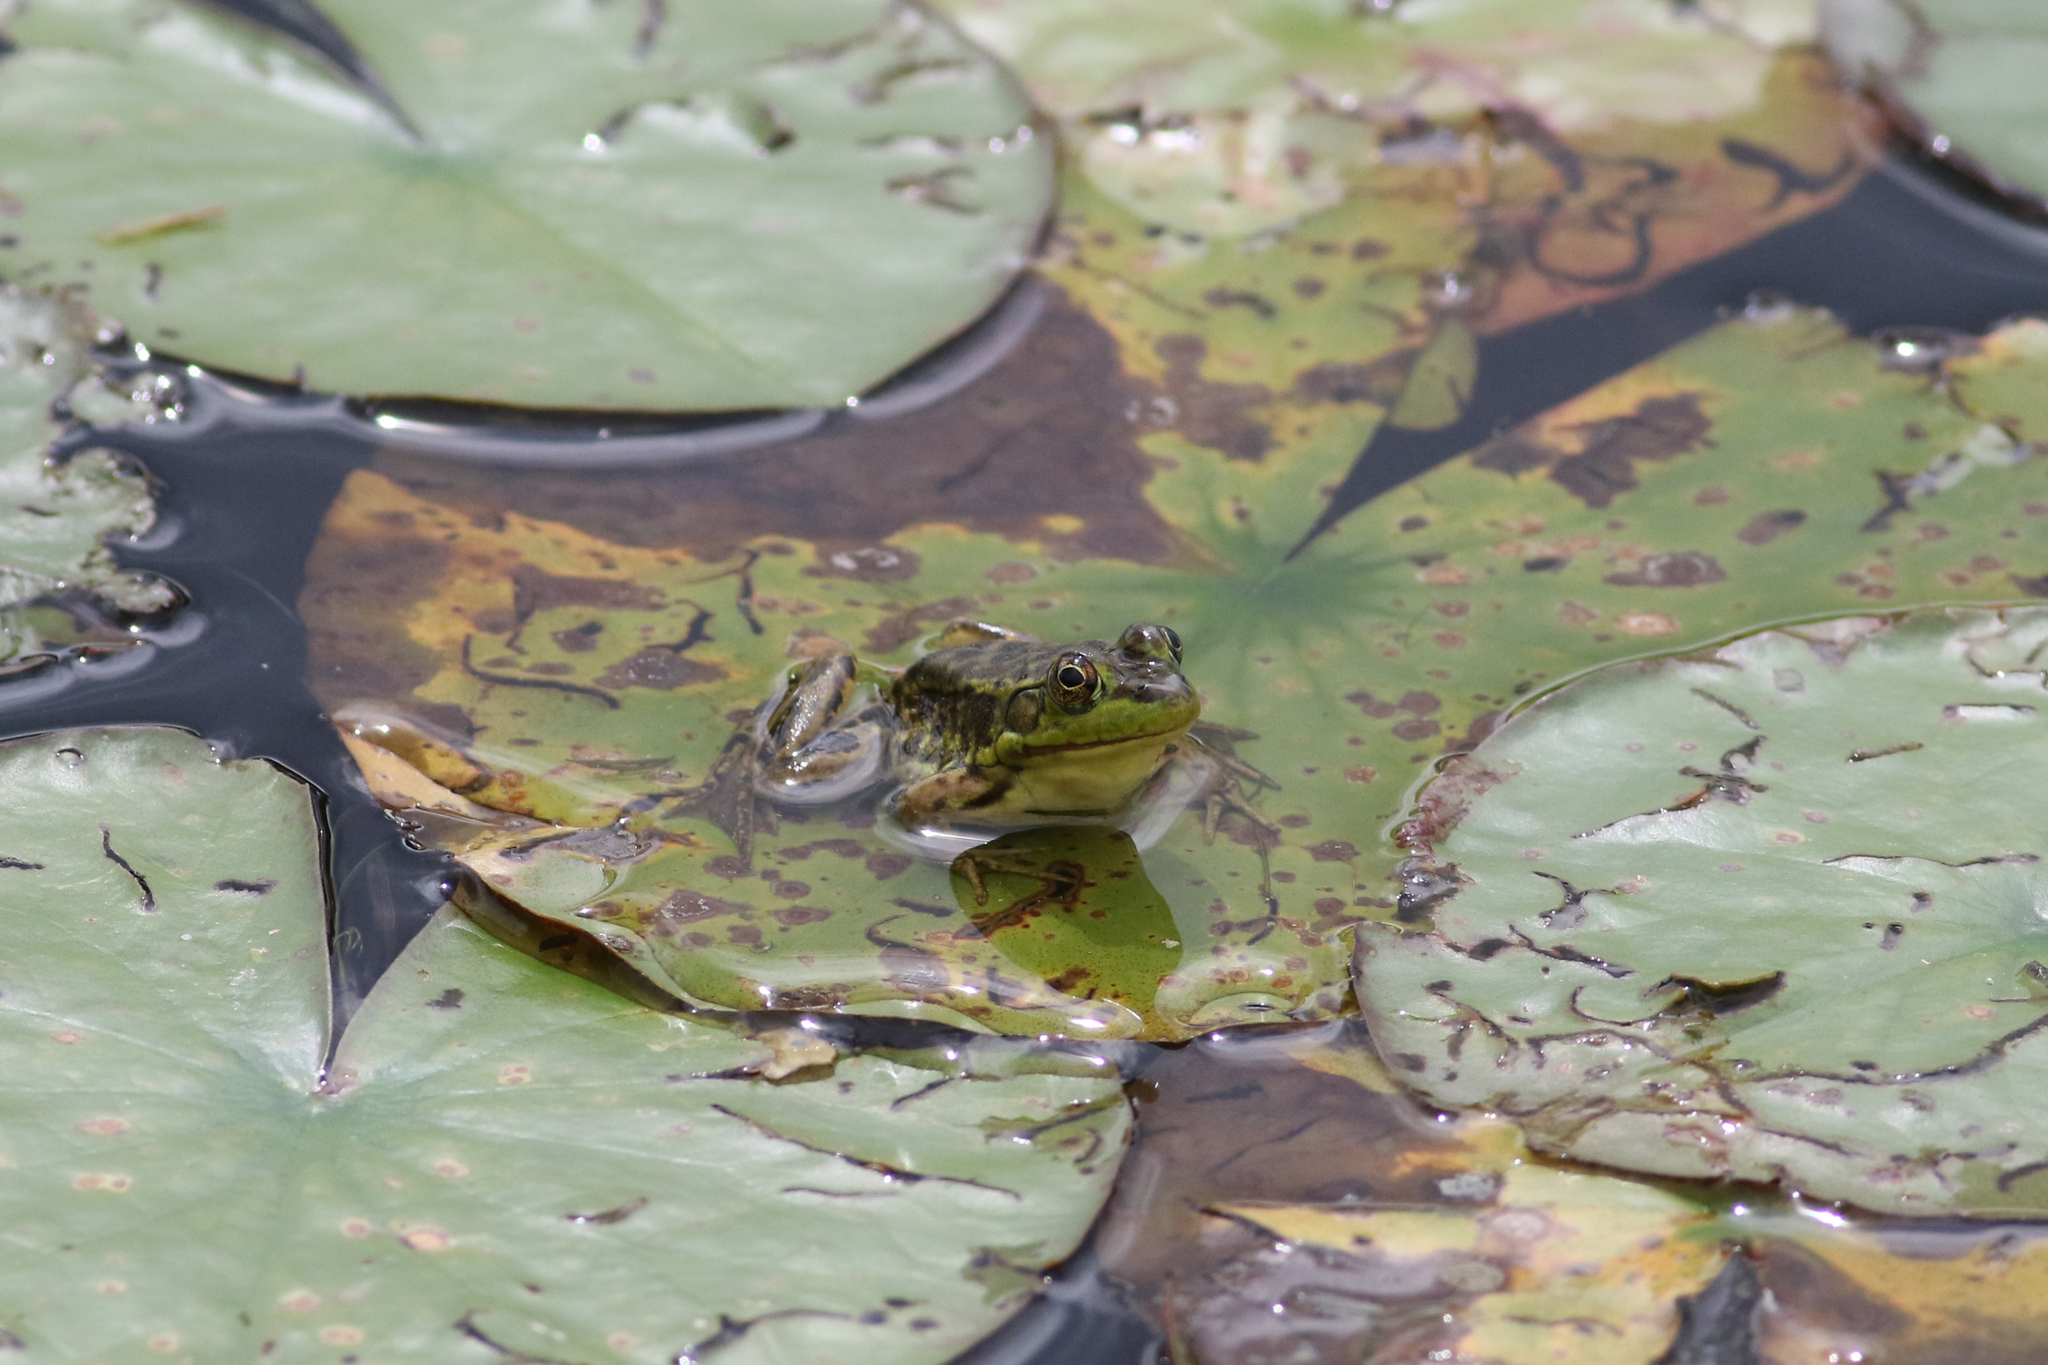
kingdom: Animalia
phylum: Chordata
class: Amphibia
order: Anura
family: Ranidae
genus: Lithobates
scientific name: Lithobates septentrionalis
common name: Mink frog
